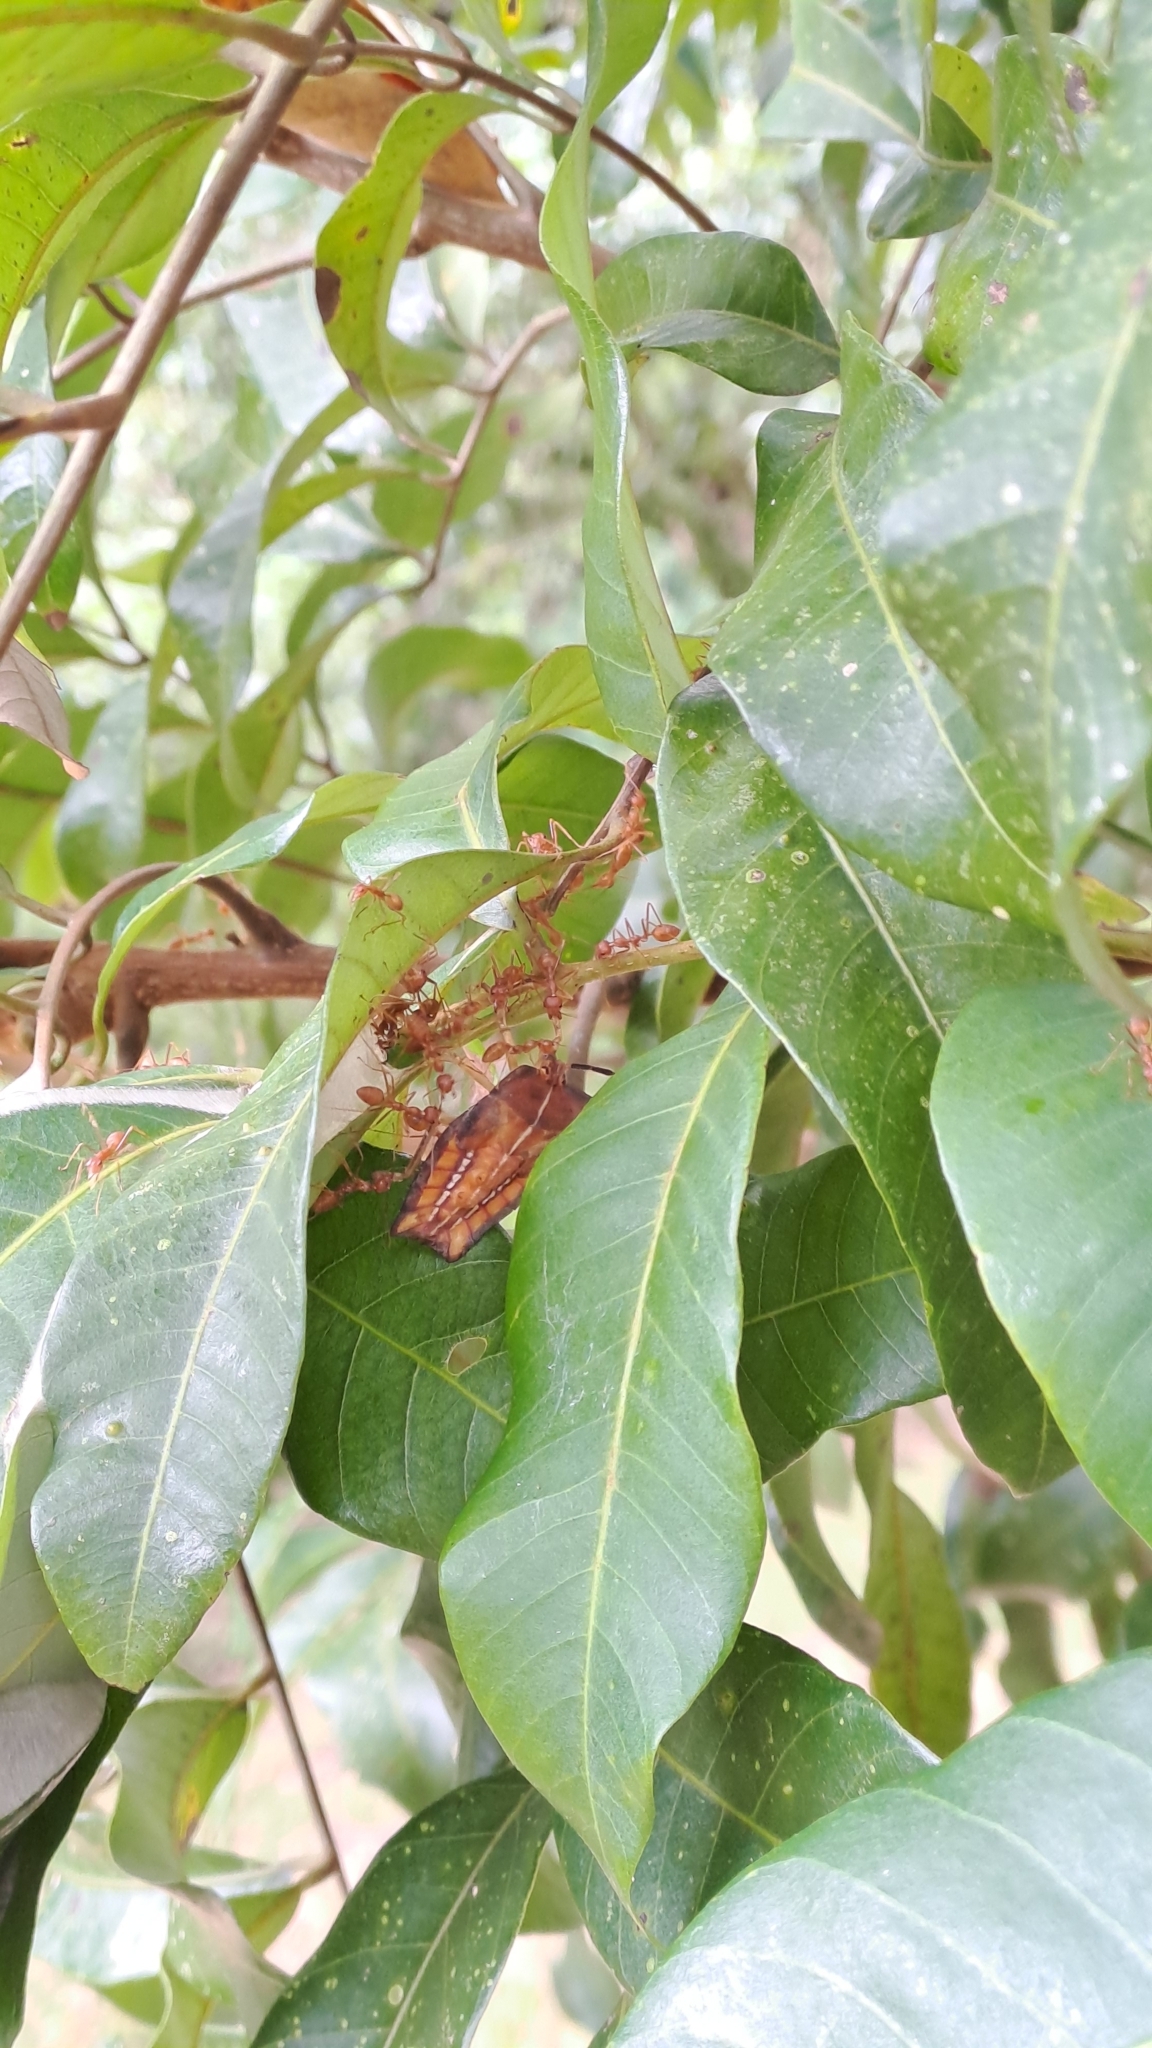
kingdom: Animalia
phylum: Arthropoda
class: Insecta
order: Hymenoptera
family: Formicidae
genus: Oecophylla
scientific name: Oecophylla smaragdina
